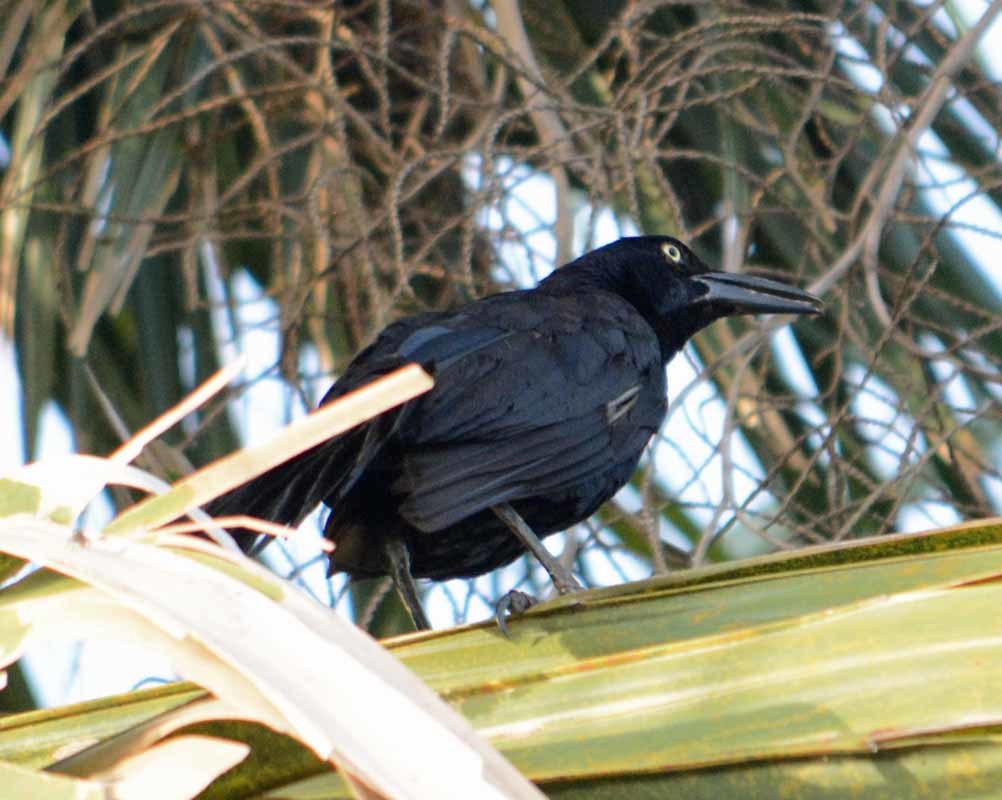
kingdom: Animalia
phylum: Chordata
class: Aves
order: Passeriformes
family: Icteridae
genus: Quiscalus
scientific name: Quiscalus mexicanus
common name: Great-tailed grackle
